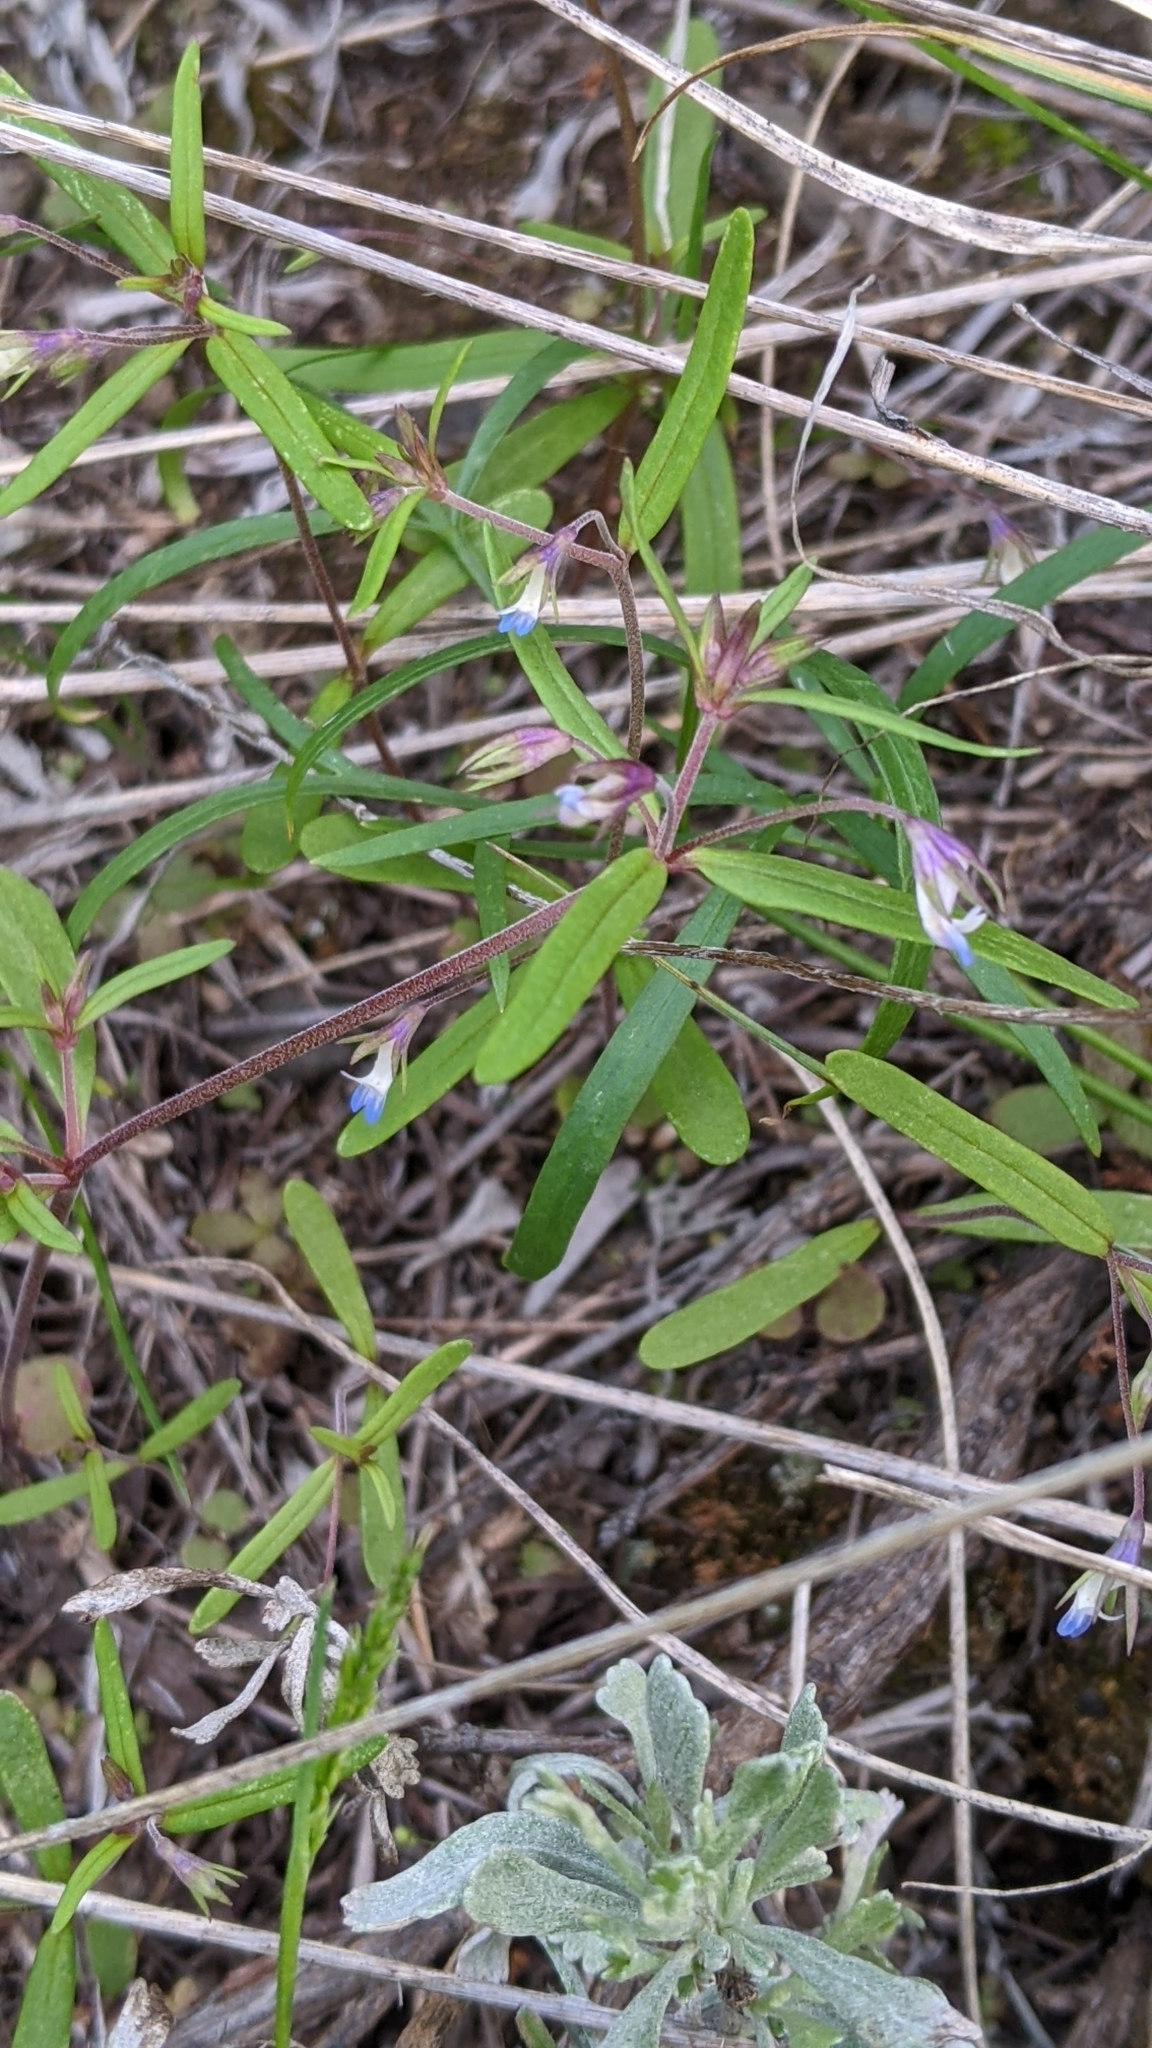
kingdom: Plantae
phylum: Tracheophyta
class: Magnoliopsida
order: Lamiales
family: Plantaginaceae
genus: Collinsia
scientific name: Collinsia parviflora
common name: Blue-lips
